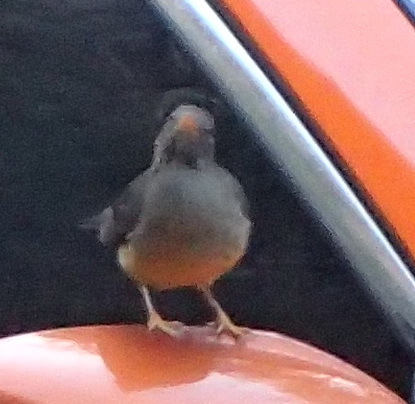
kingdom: Animalia
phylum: Chordata
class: Aves
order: Passeriformes
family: Turdidae
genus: Turdus
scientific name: Turdus olivaceus
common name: Olive thrush
